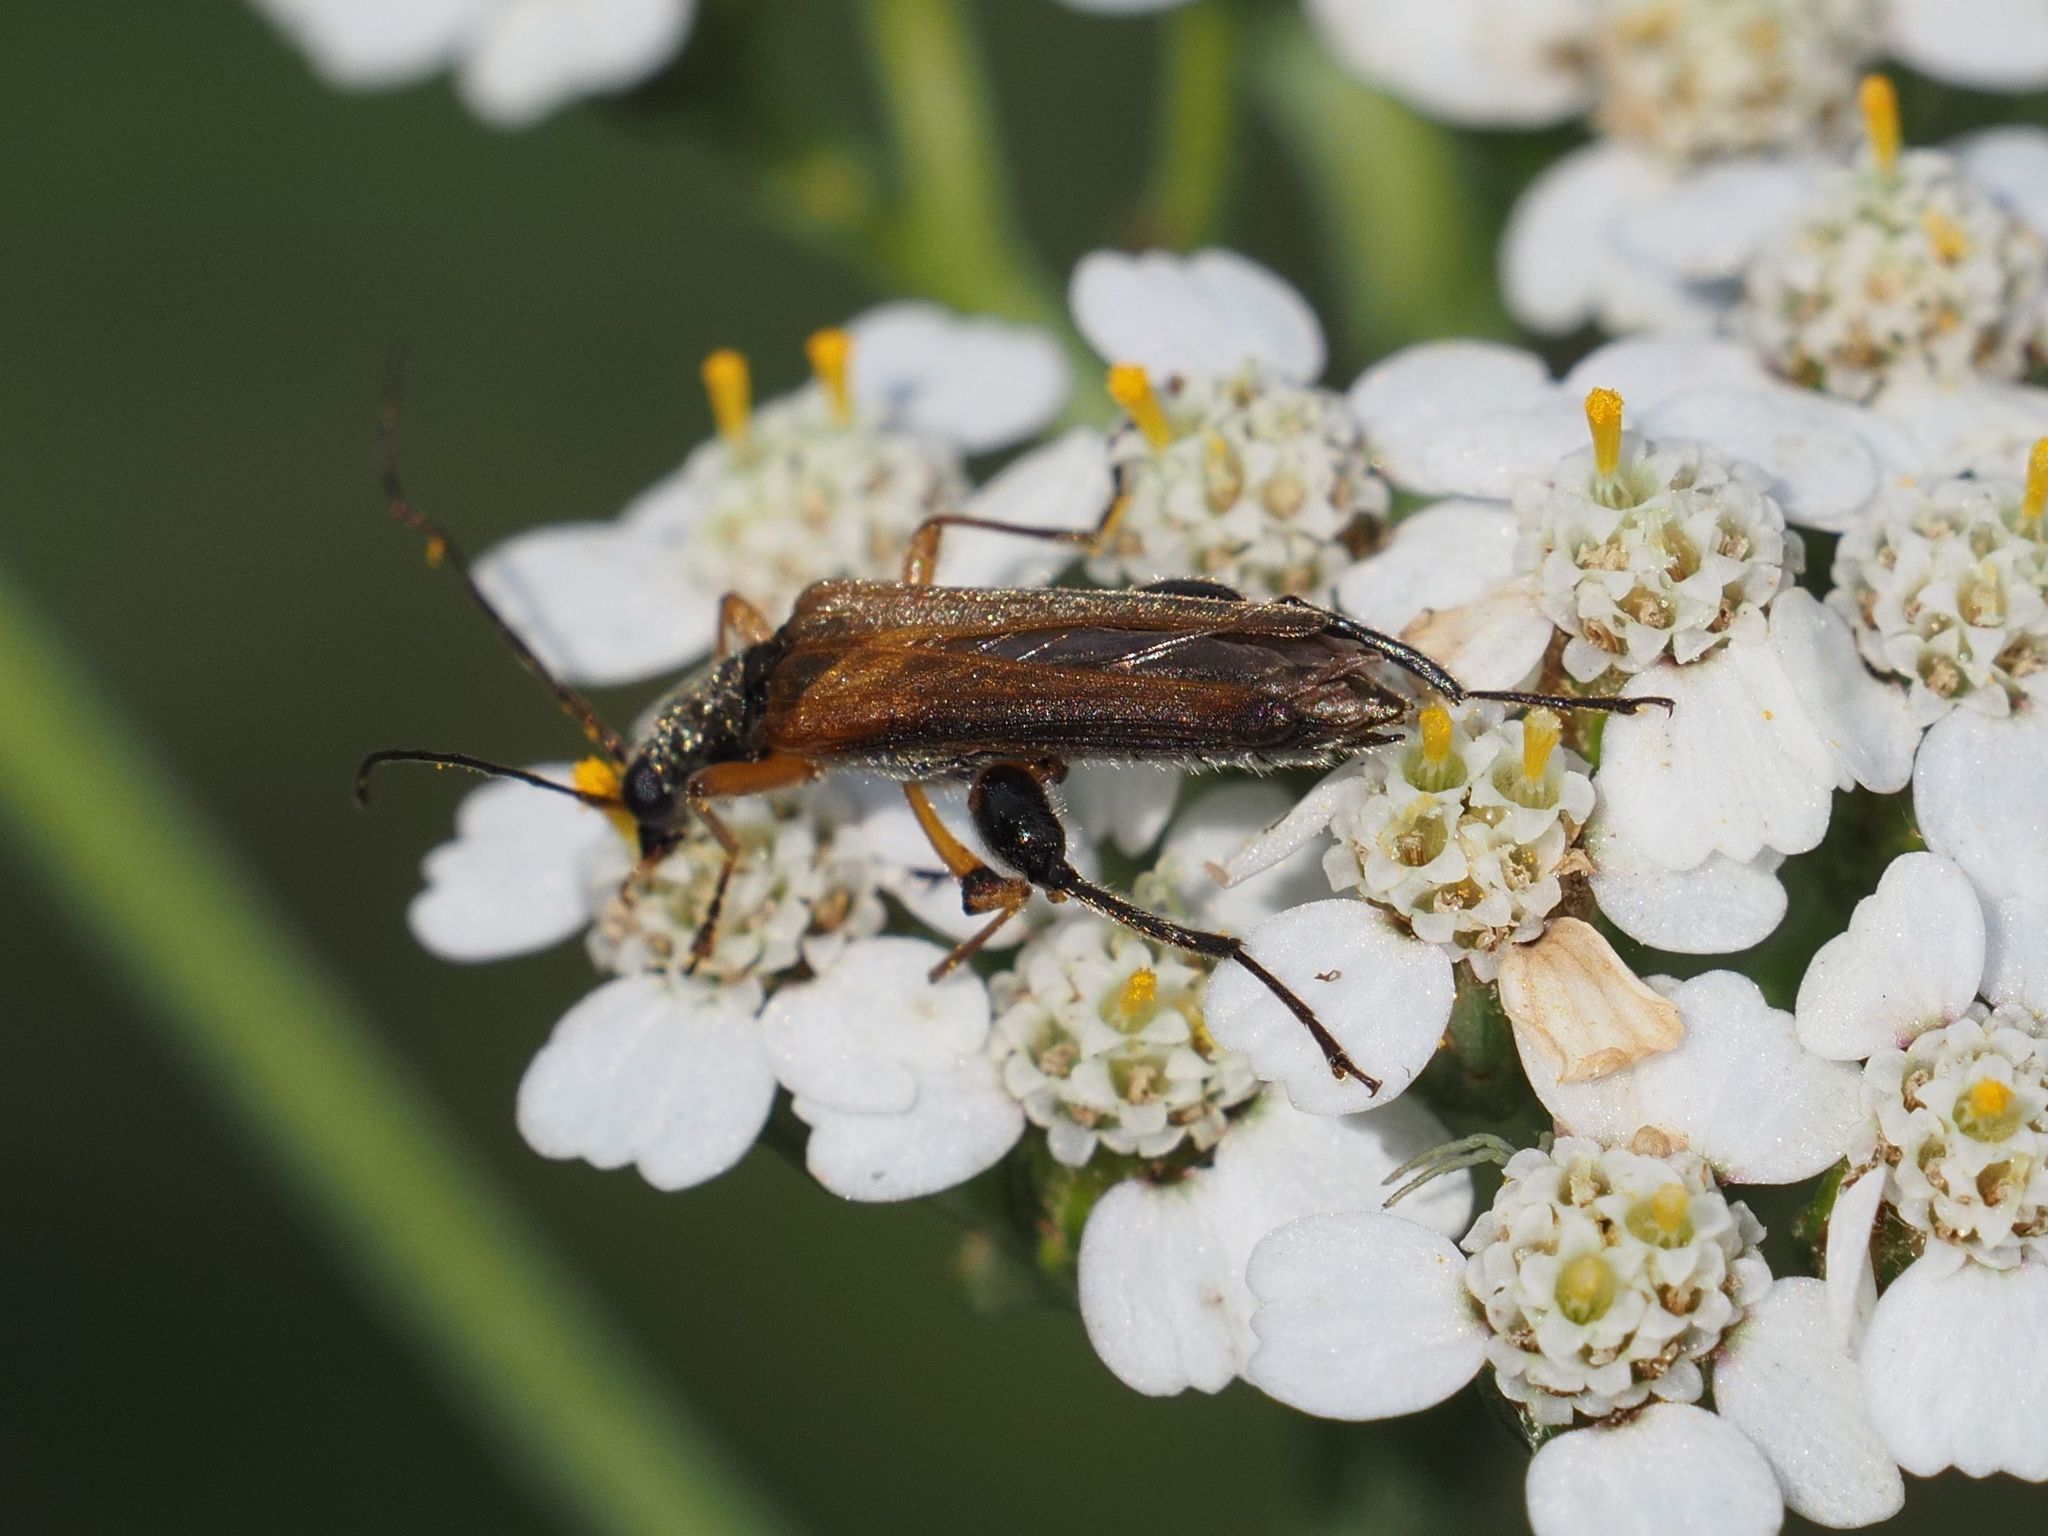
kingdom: Animalia
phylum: Arthropoda
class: Insecta
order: Coleoptera
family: Oedemeridae
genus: Oedemera
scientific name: Oedemera podagrariae
